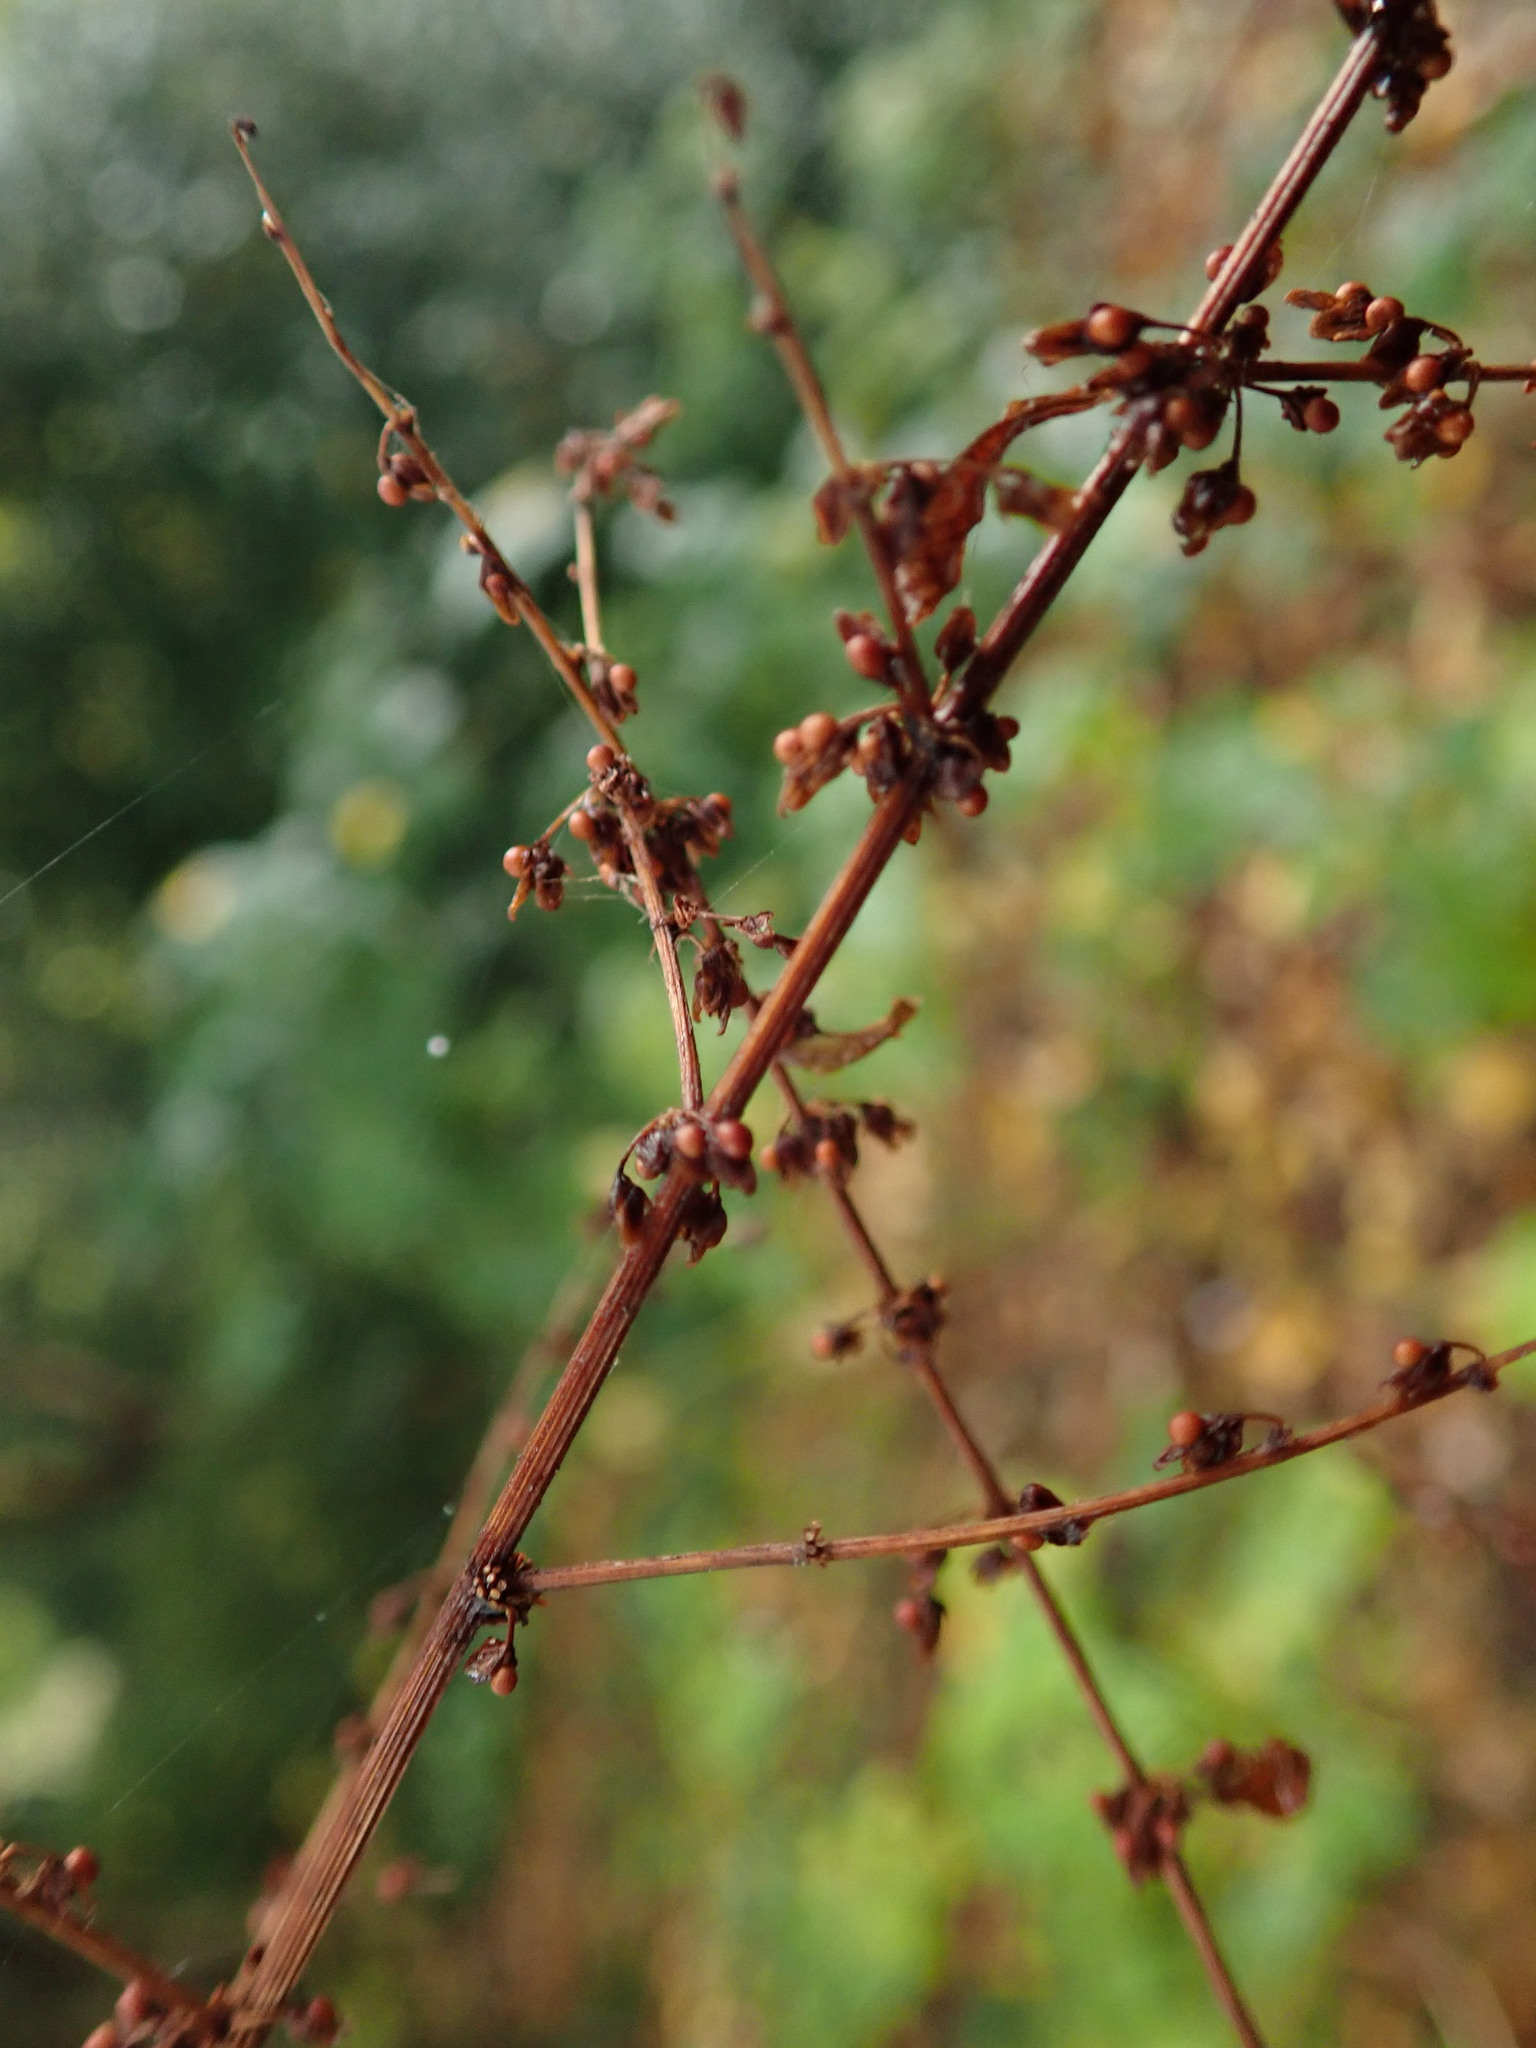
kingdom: Plantae
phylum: Tracheophyta
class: Magnoliopsida
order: Caryophyllales
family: Polygonaceae
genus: Rumex
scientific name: Rumex sanguineus
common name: Wood dock
